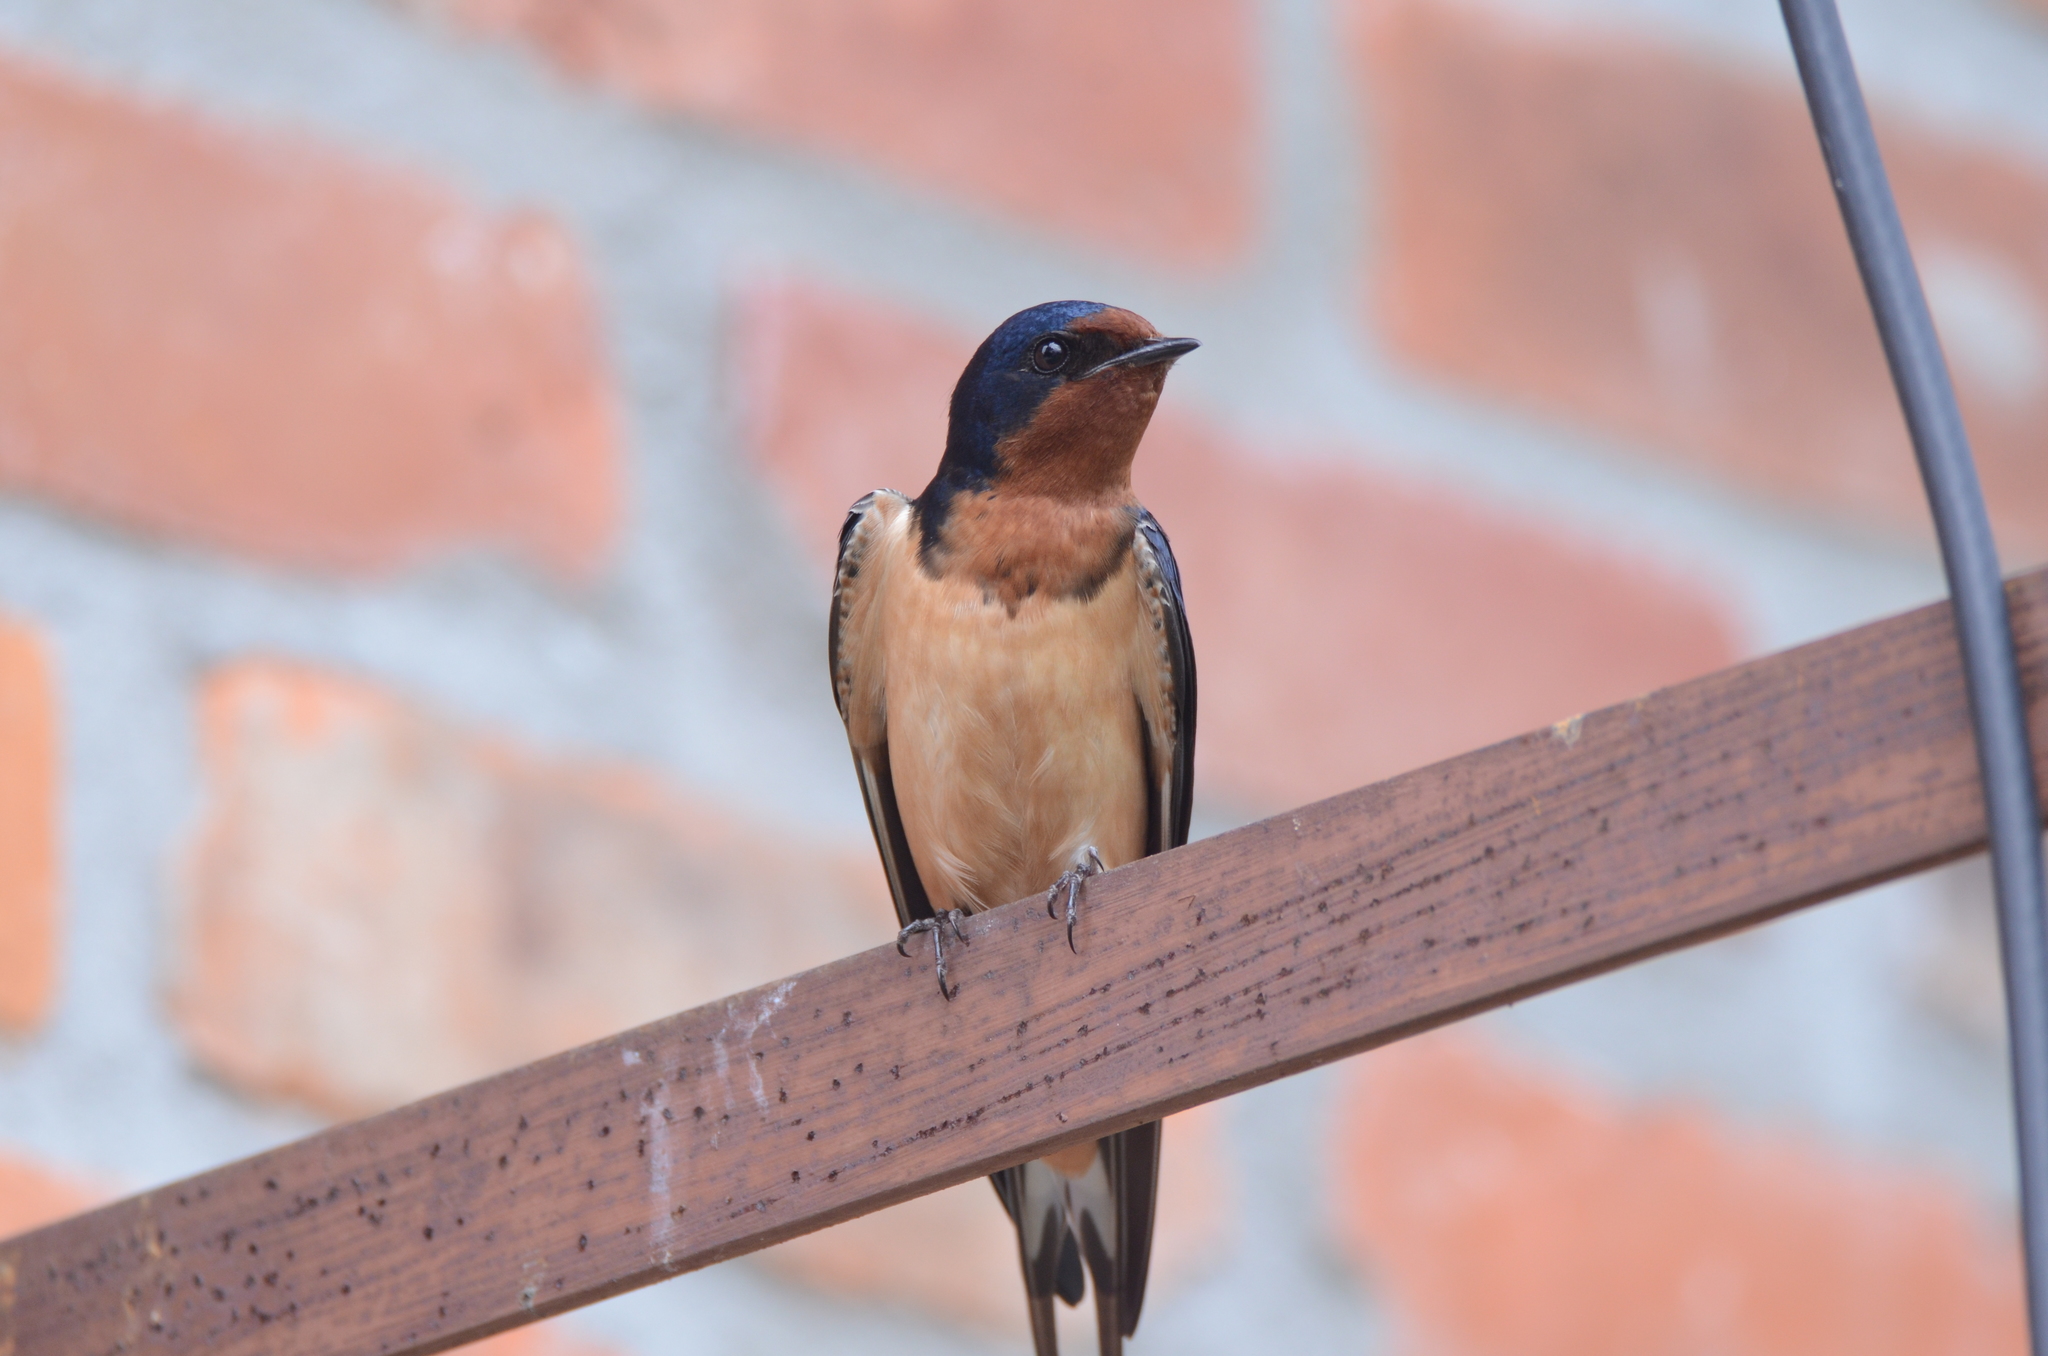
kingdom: Animalia
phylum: Chordata
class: Aves
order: Passeriformes
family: Hirundinidae
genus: Hirundo
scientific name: Hirundo rustica
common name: Barn swallow
